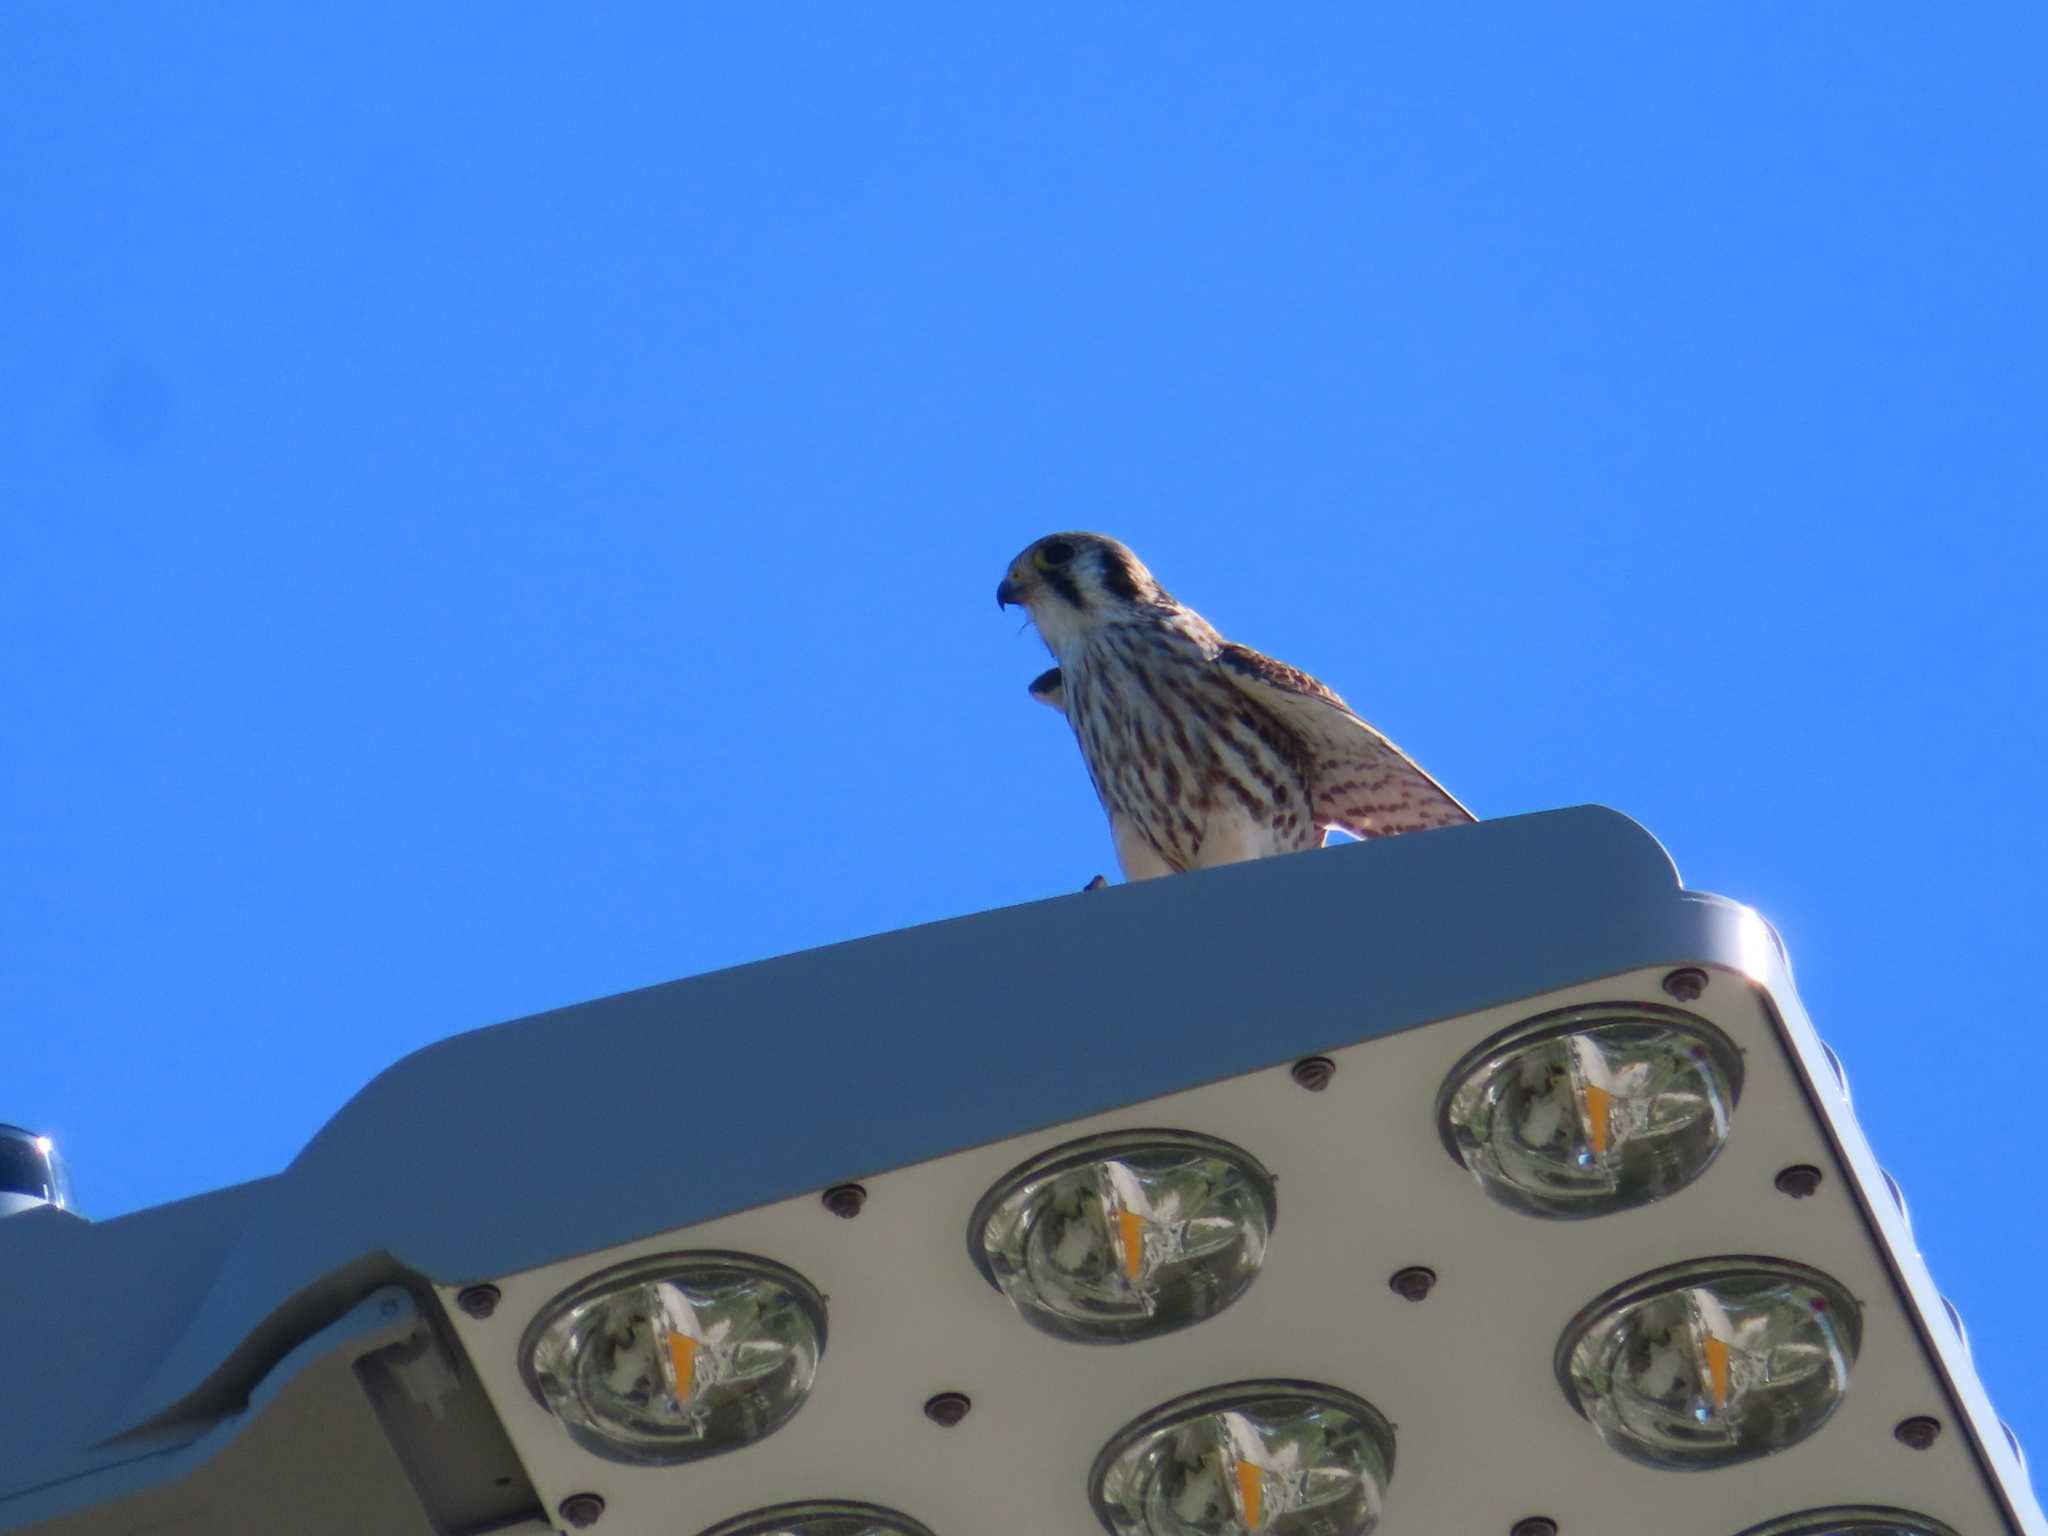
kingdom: Animalia
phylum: Chordata
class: Aves
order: Falconiformes
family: Falconidae
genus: Falco
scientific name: Falco sparverius
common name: American kestrel
